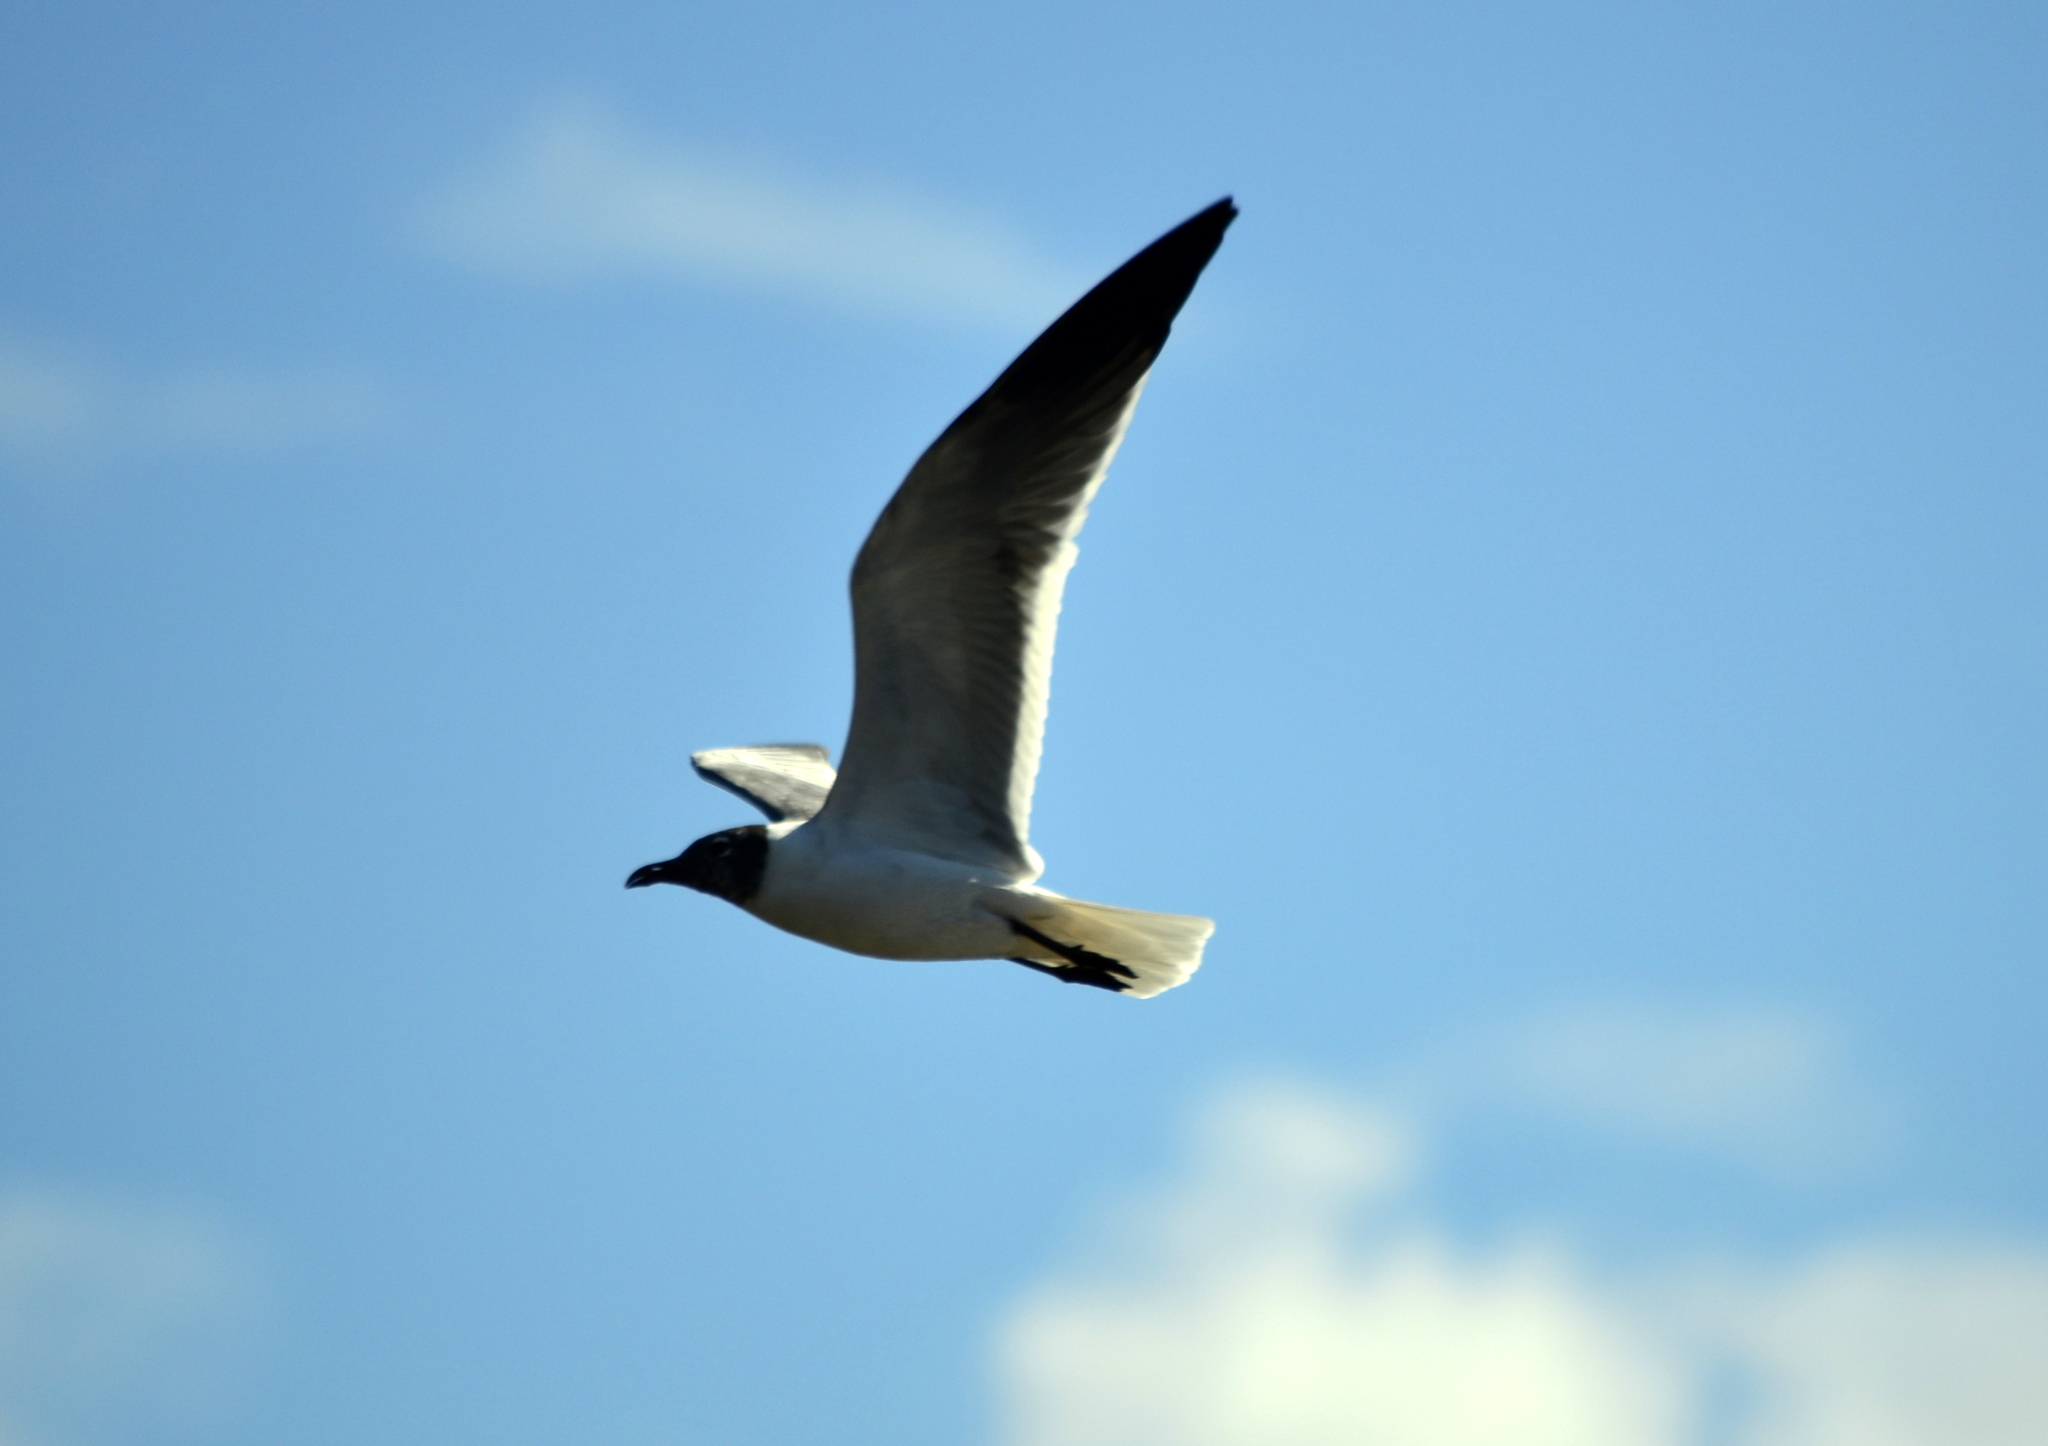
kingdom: Animalia
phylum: Chordata
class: Aves
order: Charadriiformes
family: Laridae
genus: Leucophaeus
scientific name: Leucophaeus atricilla
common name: Laughing gull
